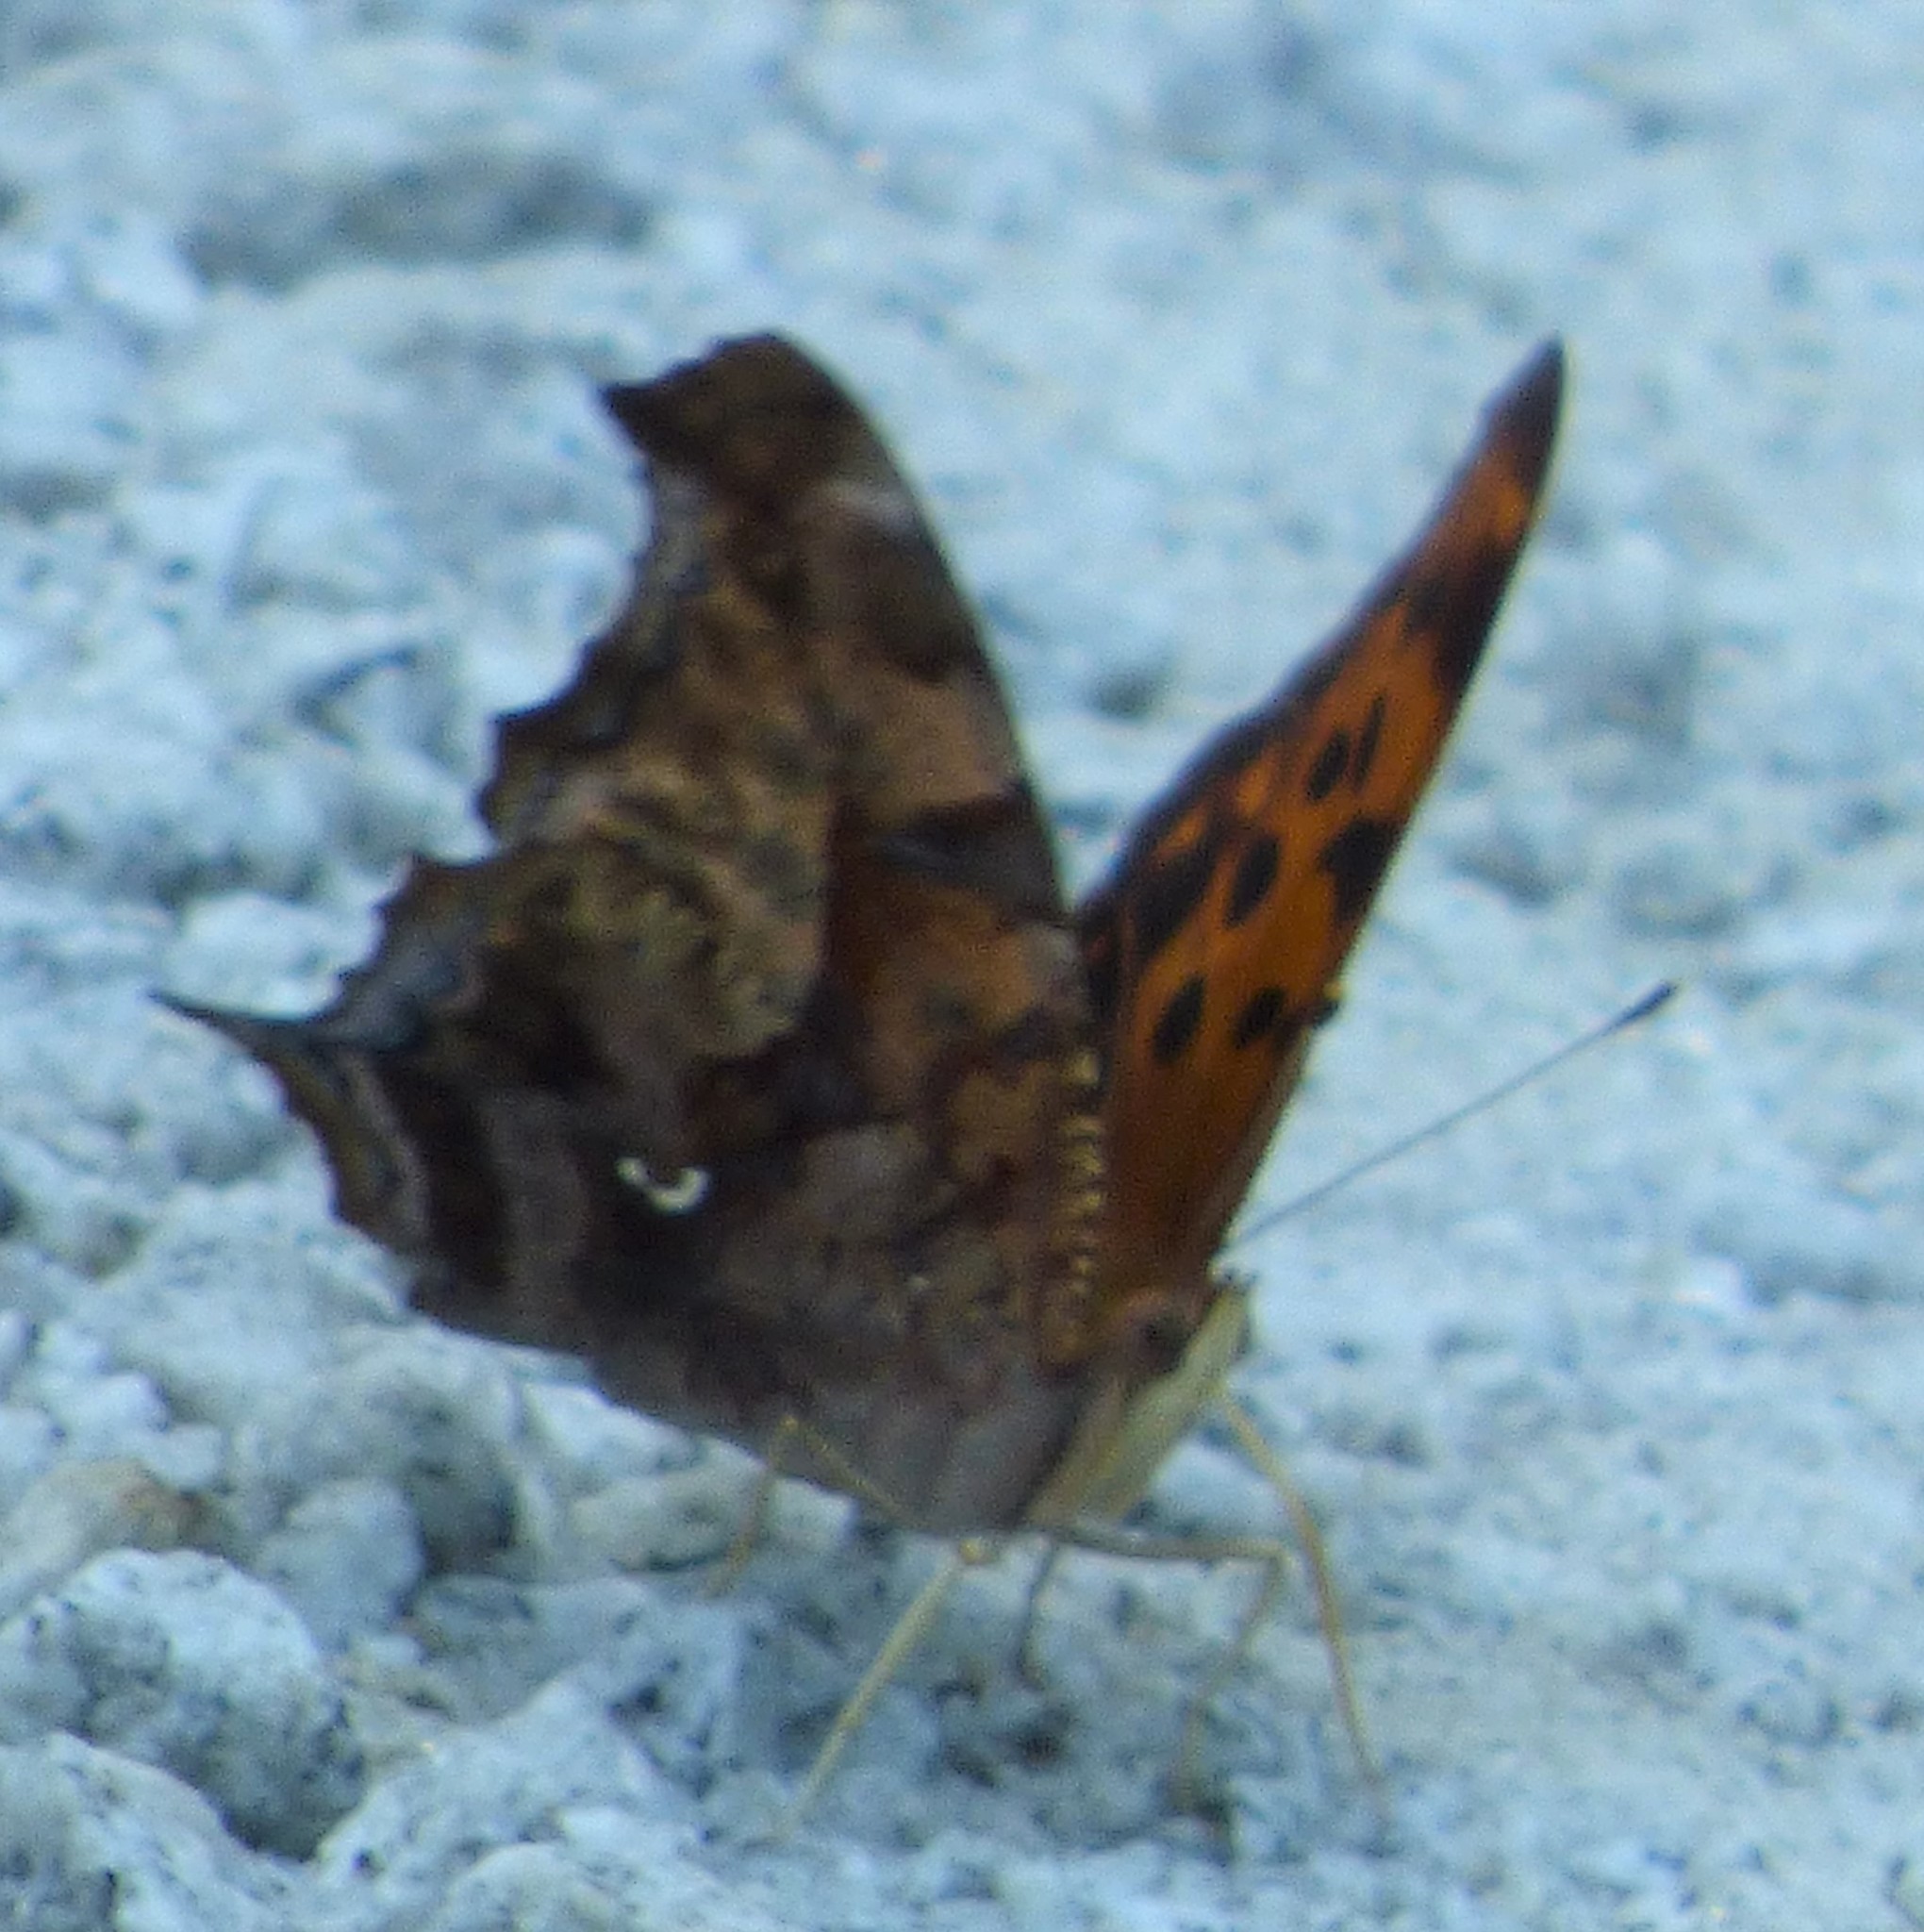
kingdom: Animalia
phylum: Arthropoda
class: Insecta
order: Lepidoptera
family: Nymphalidae
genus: Polygonia
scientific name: Polygonia interrogationis
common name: Question mark
